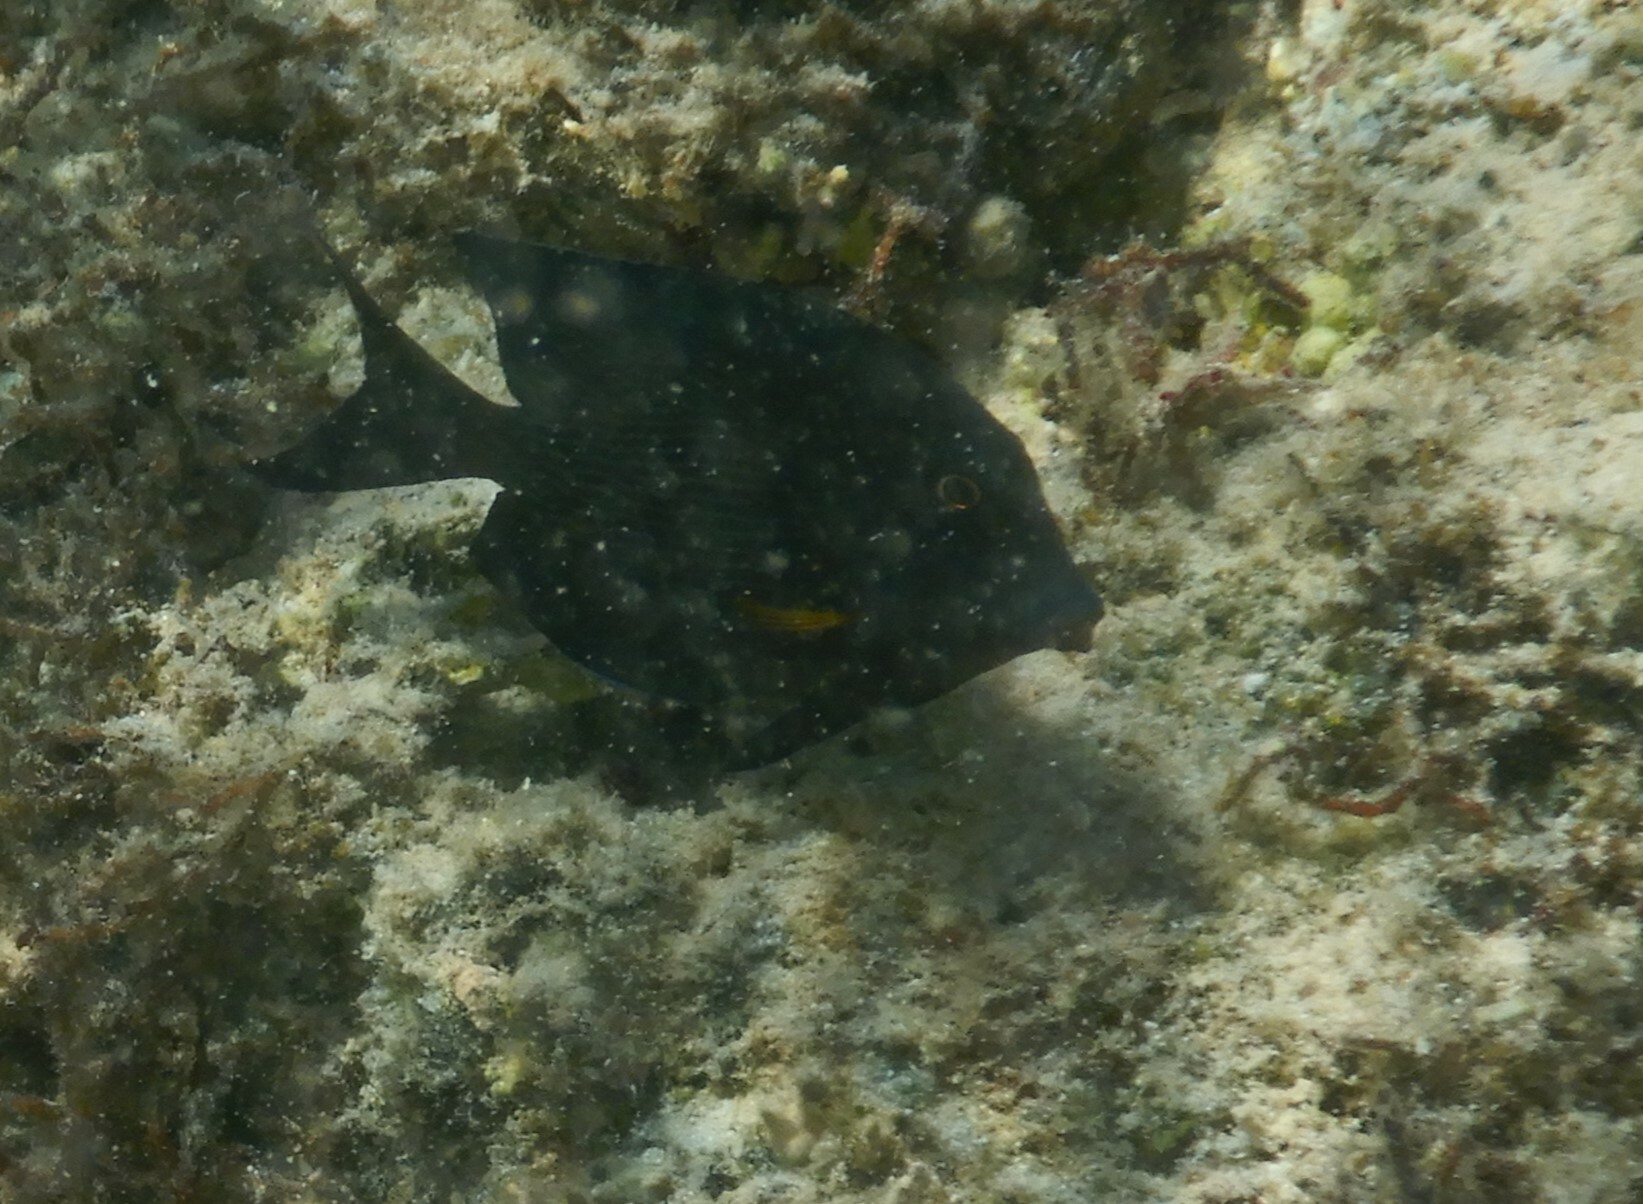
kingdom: Animalia
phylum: Chordata
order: Perciformes
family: Acanthuridae
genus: Ctenochaetus
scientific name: Ctenochaetus striatus
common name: Bristle-toothed surgeonfish
